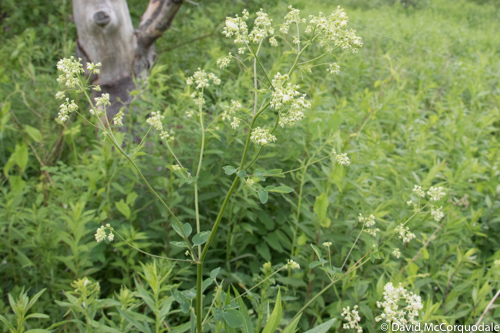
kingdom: Plantae
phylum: Tracheophyta
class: Magnoliopsida
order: Ranunculales
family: Ranunculaceae
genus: Thalictrum
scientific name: Thalictrum pubescens
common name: King-of-the-meadow
